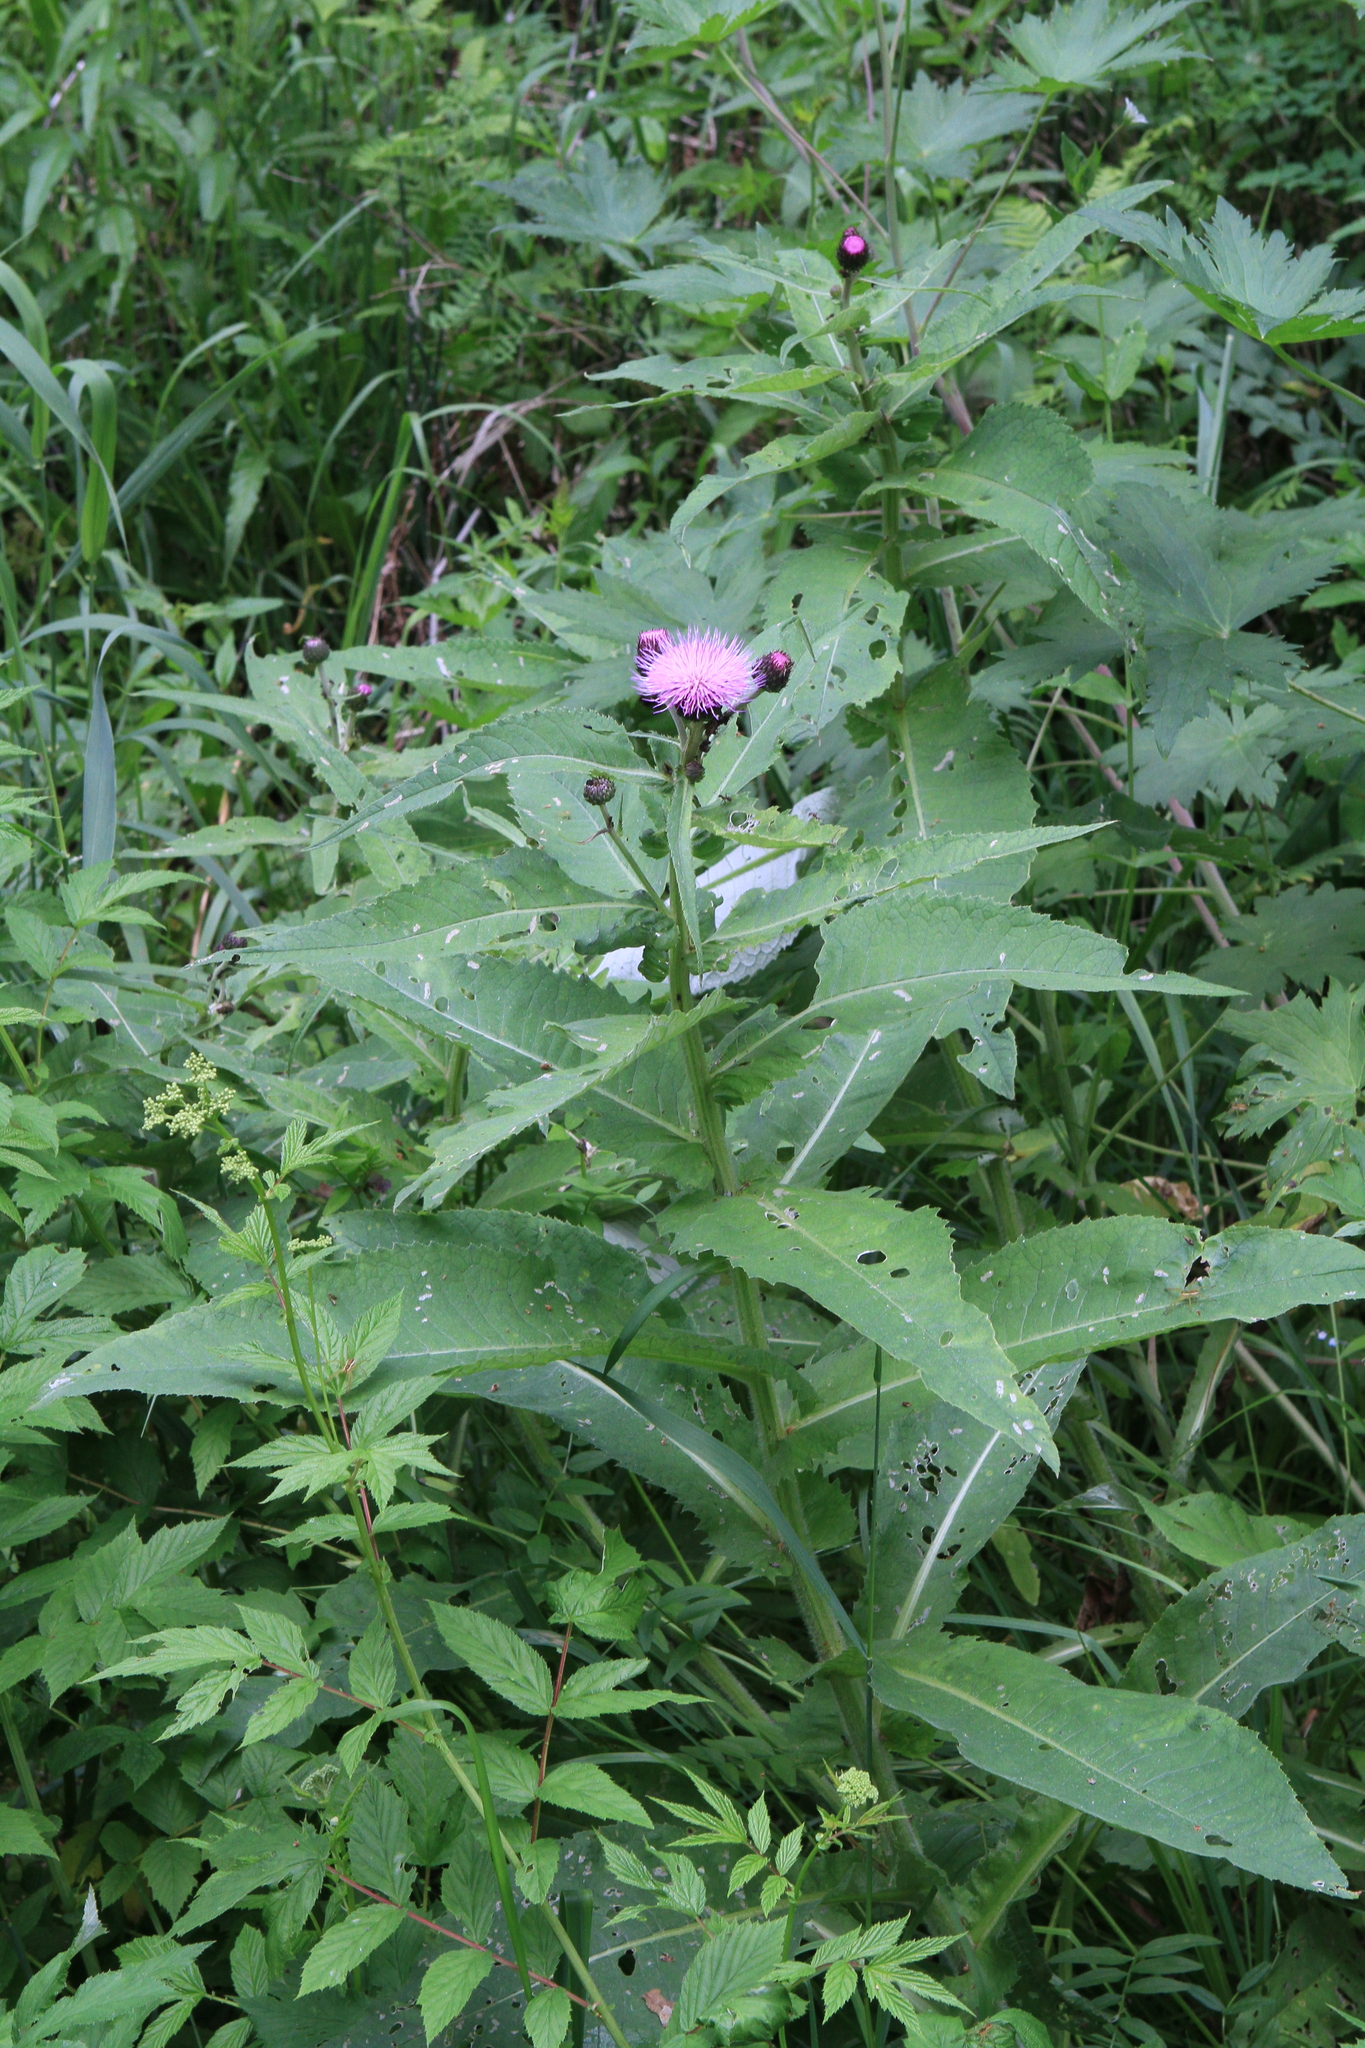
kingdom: Plantae
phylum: Tracheophyta
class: Magnoliopsida
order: Asterales
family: Asteraceae
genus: Cirsium
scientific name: Cirsium helenioides
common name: Melancholy thistle
